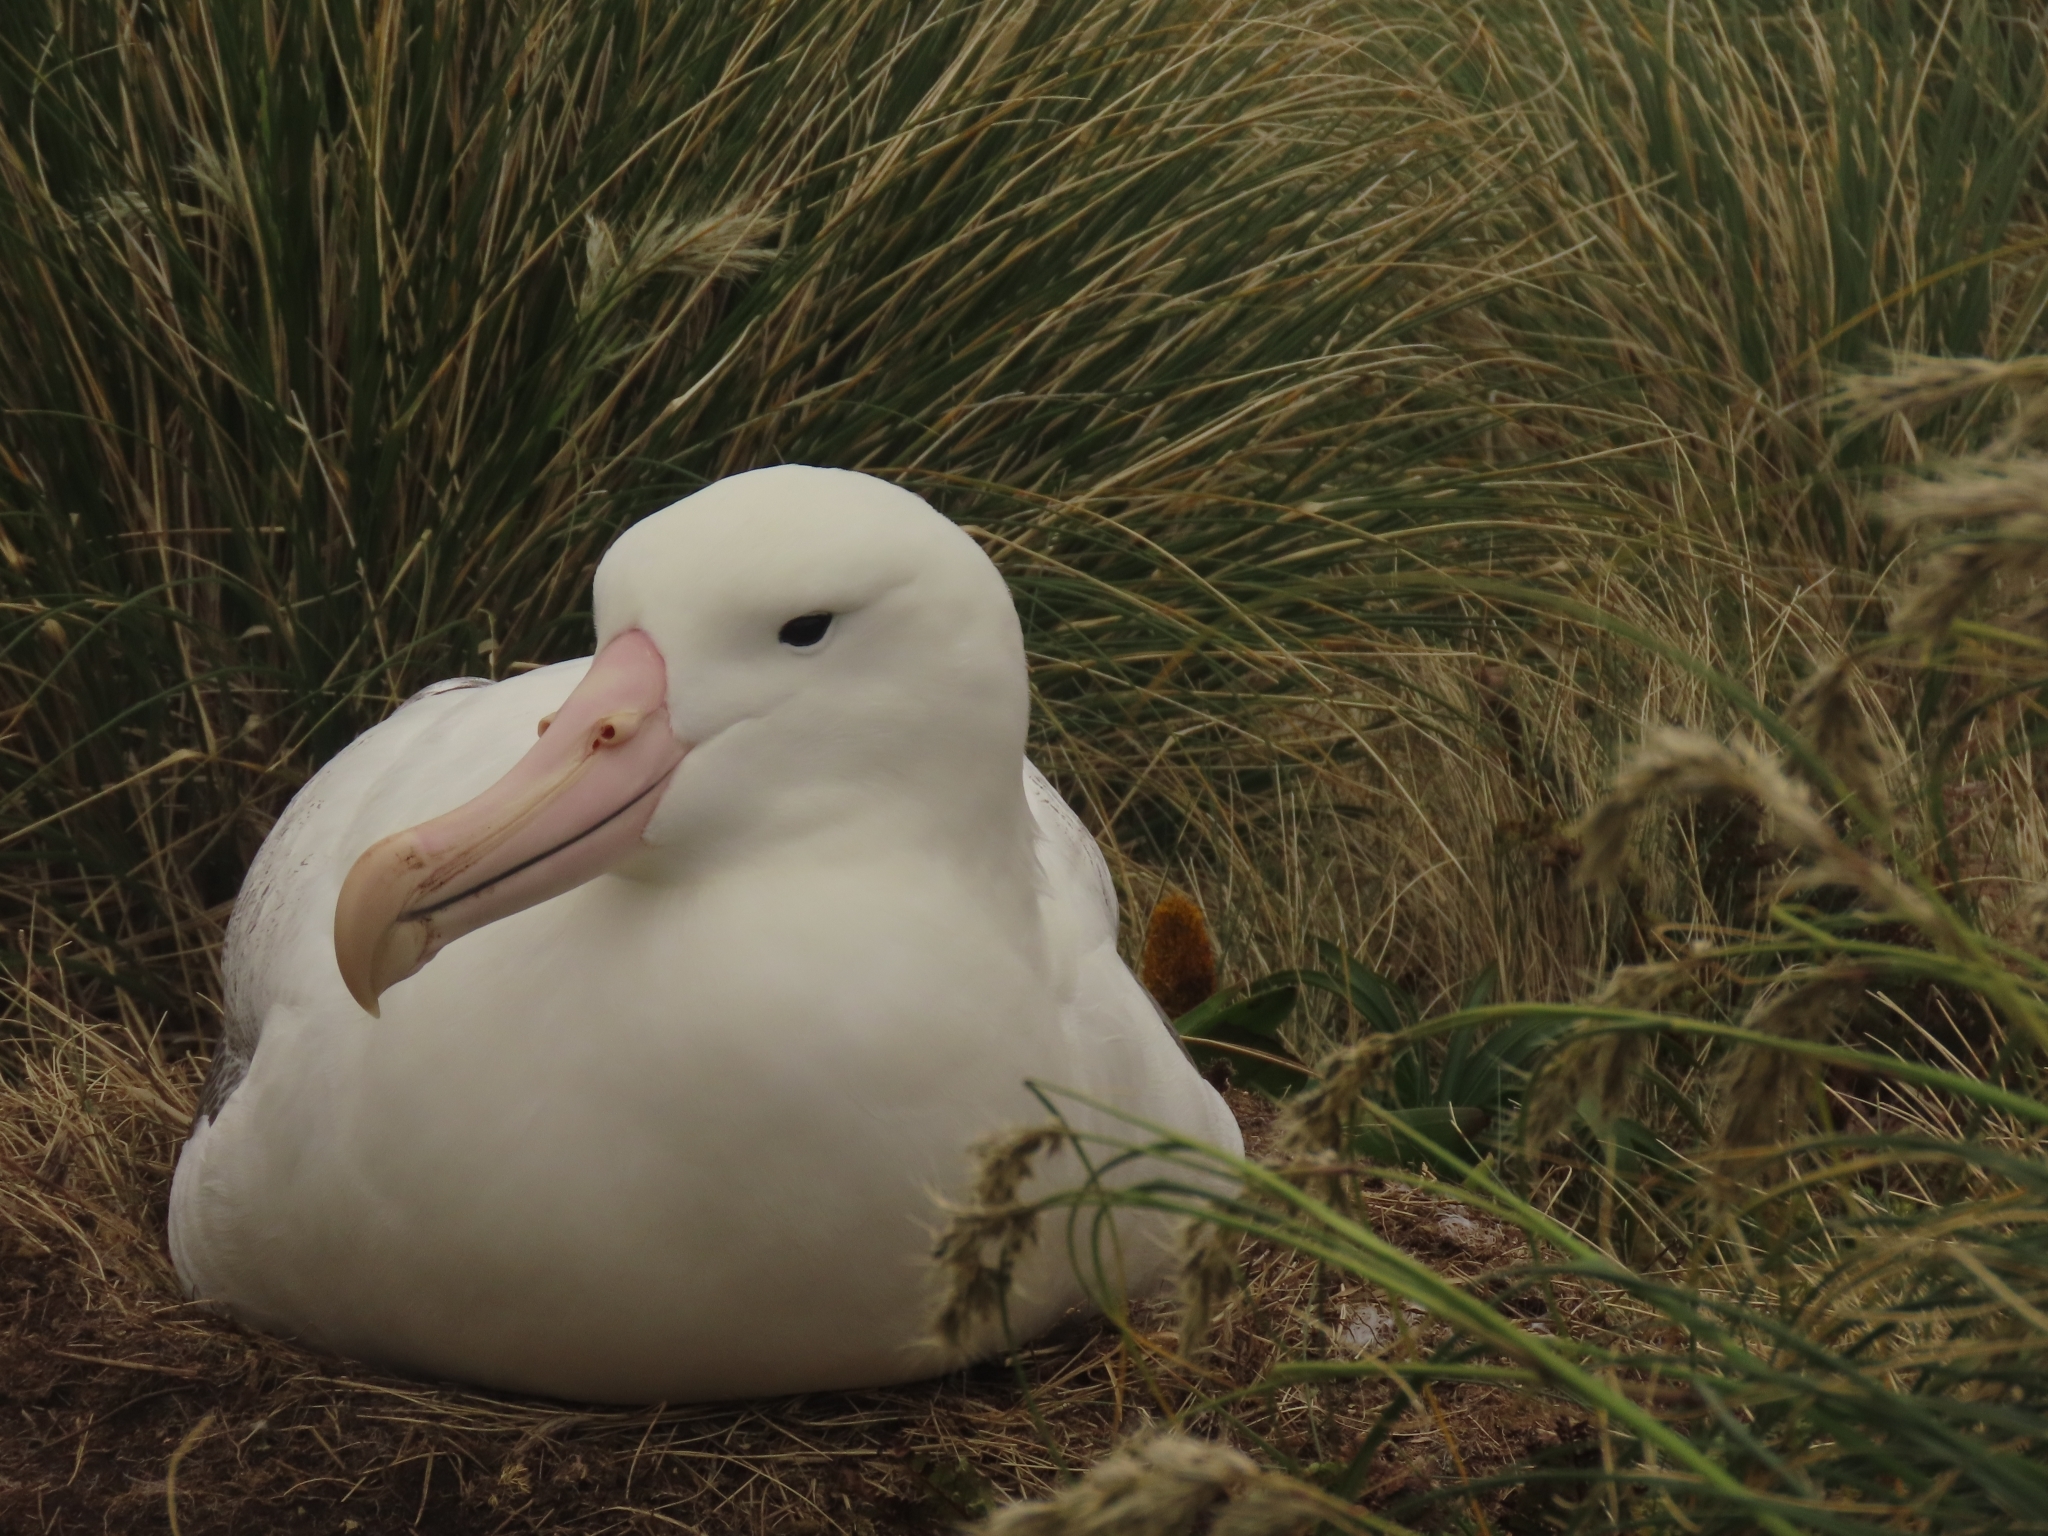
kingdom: Animalia
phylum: Chordata
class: Aves
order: Procellariiformes
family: Diomedeidae
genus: Diomedea
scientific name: Diomedea epomophora
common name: Southern royal albatross
